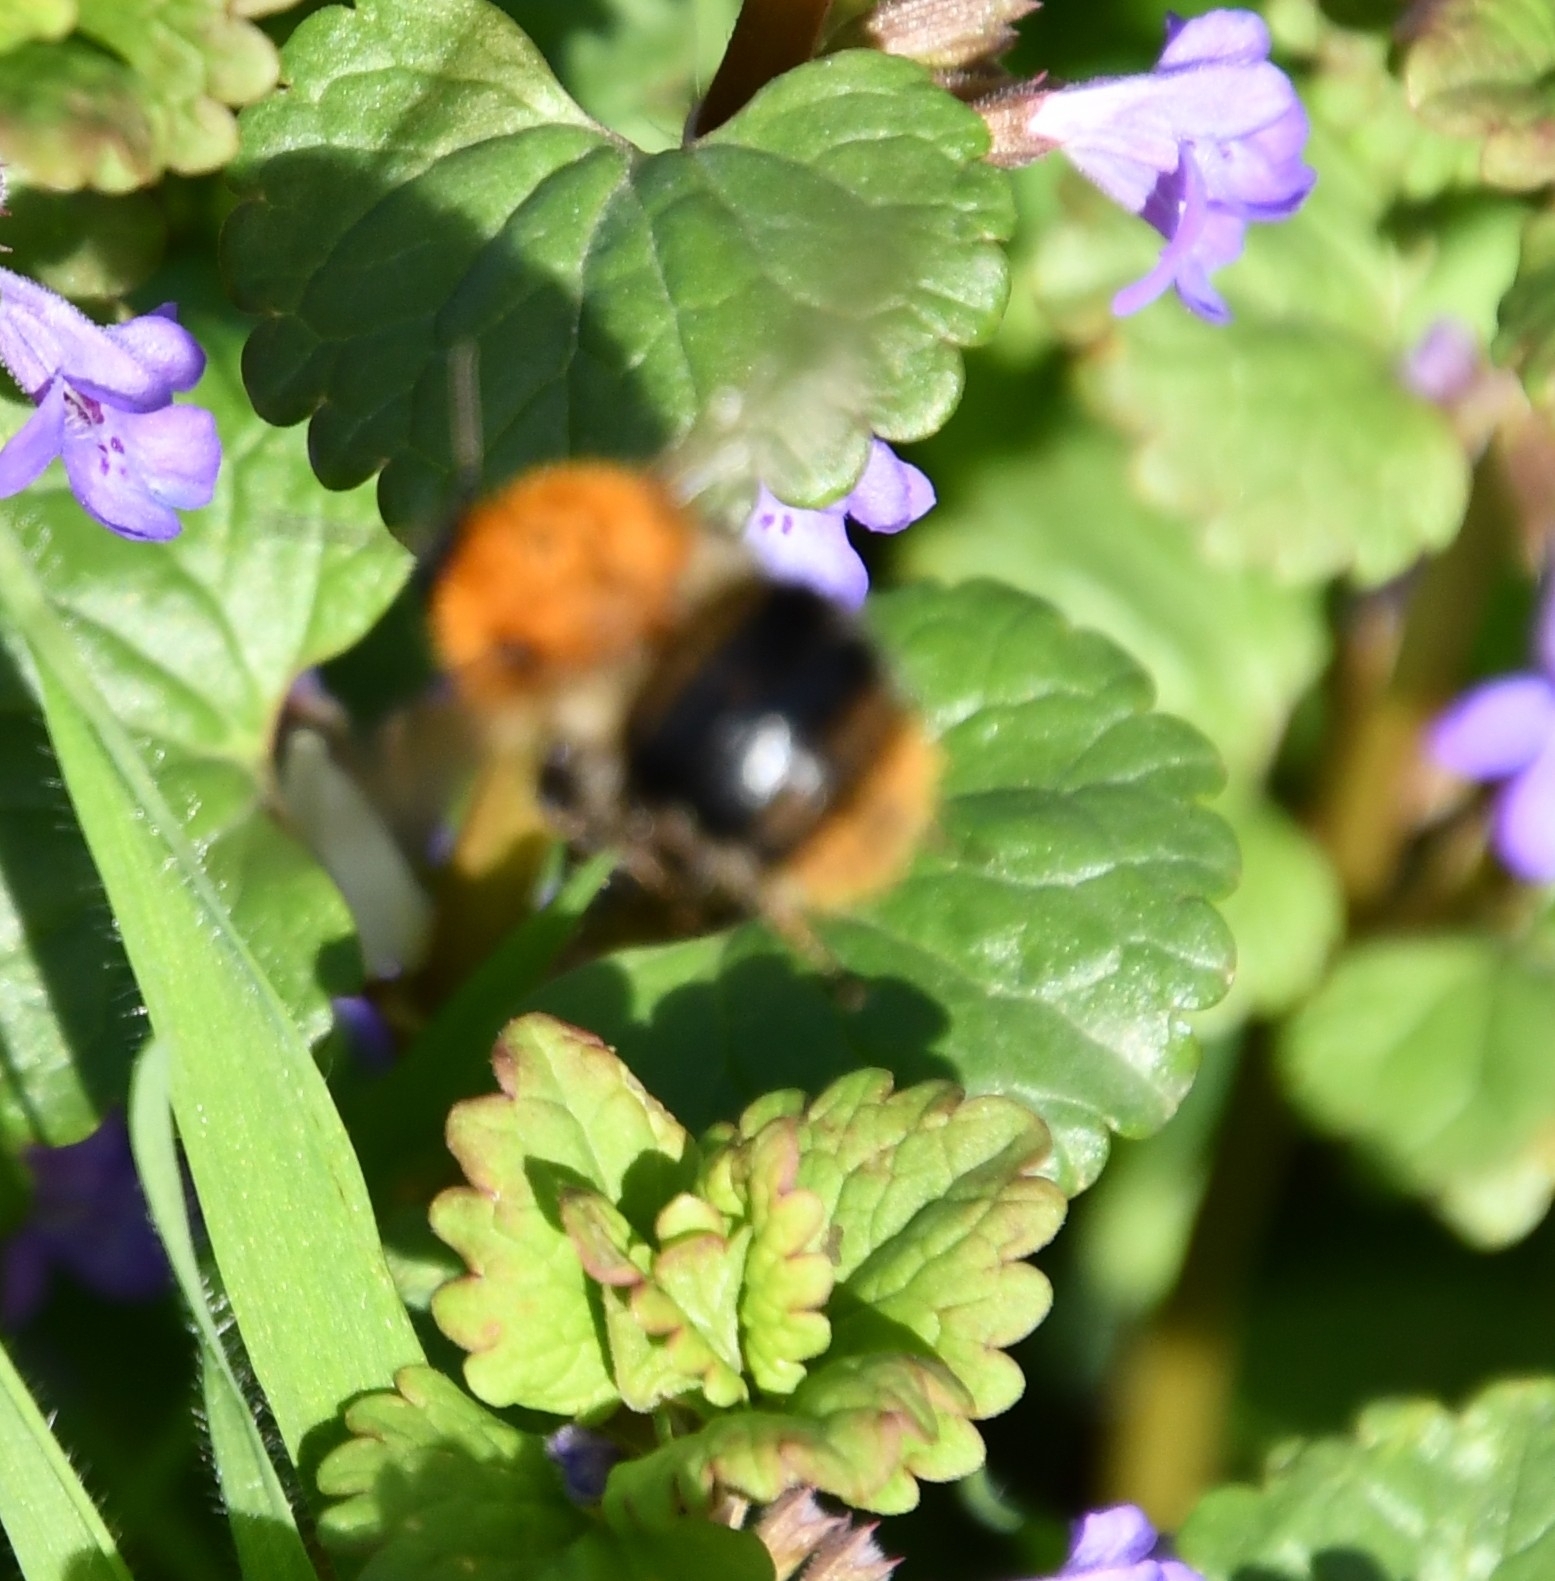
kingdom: Animalia
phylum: Arthropoda
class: Insecta
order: Hymenoptera
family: Apidae
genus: Bombus
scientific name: Bombus pascuorum
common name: Common carder bee
